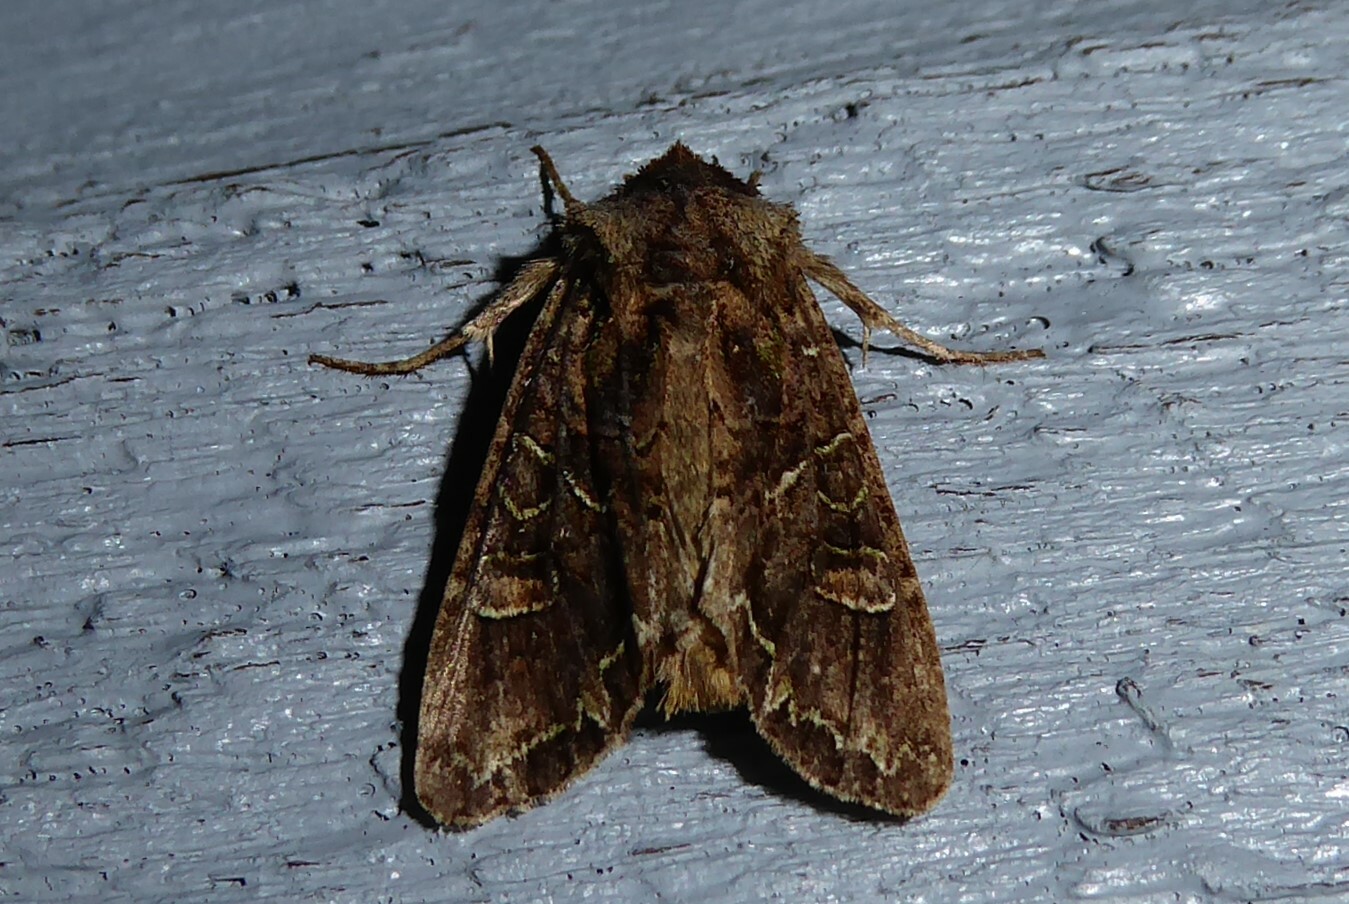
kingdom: Animalia
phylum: Arthropoda
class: Insecta
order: Lepidoptera
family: Noctuidae
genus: Ichneutica
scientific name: Ichneutica insignis
